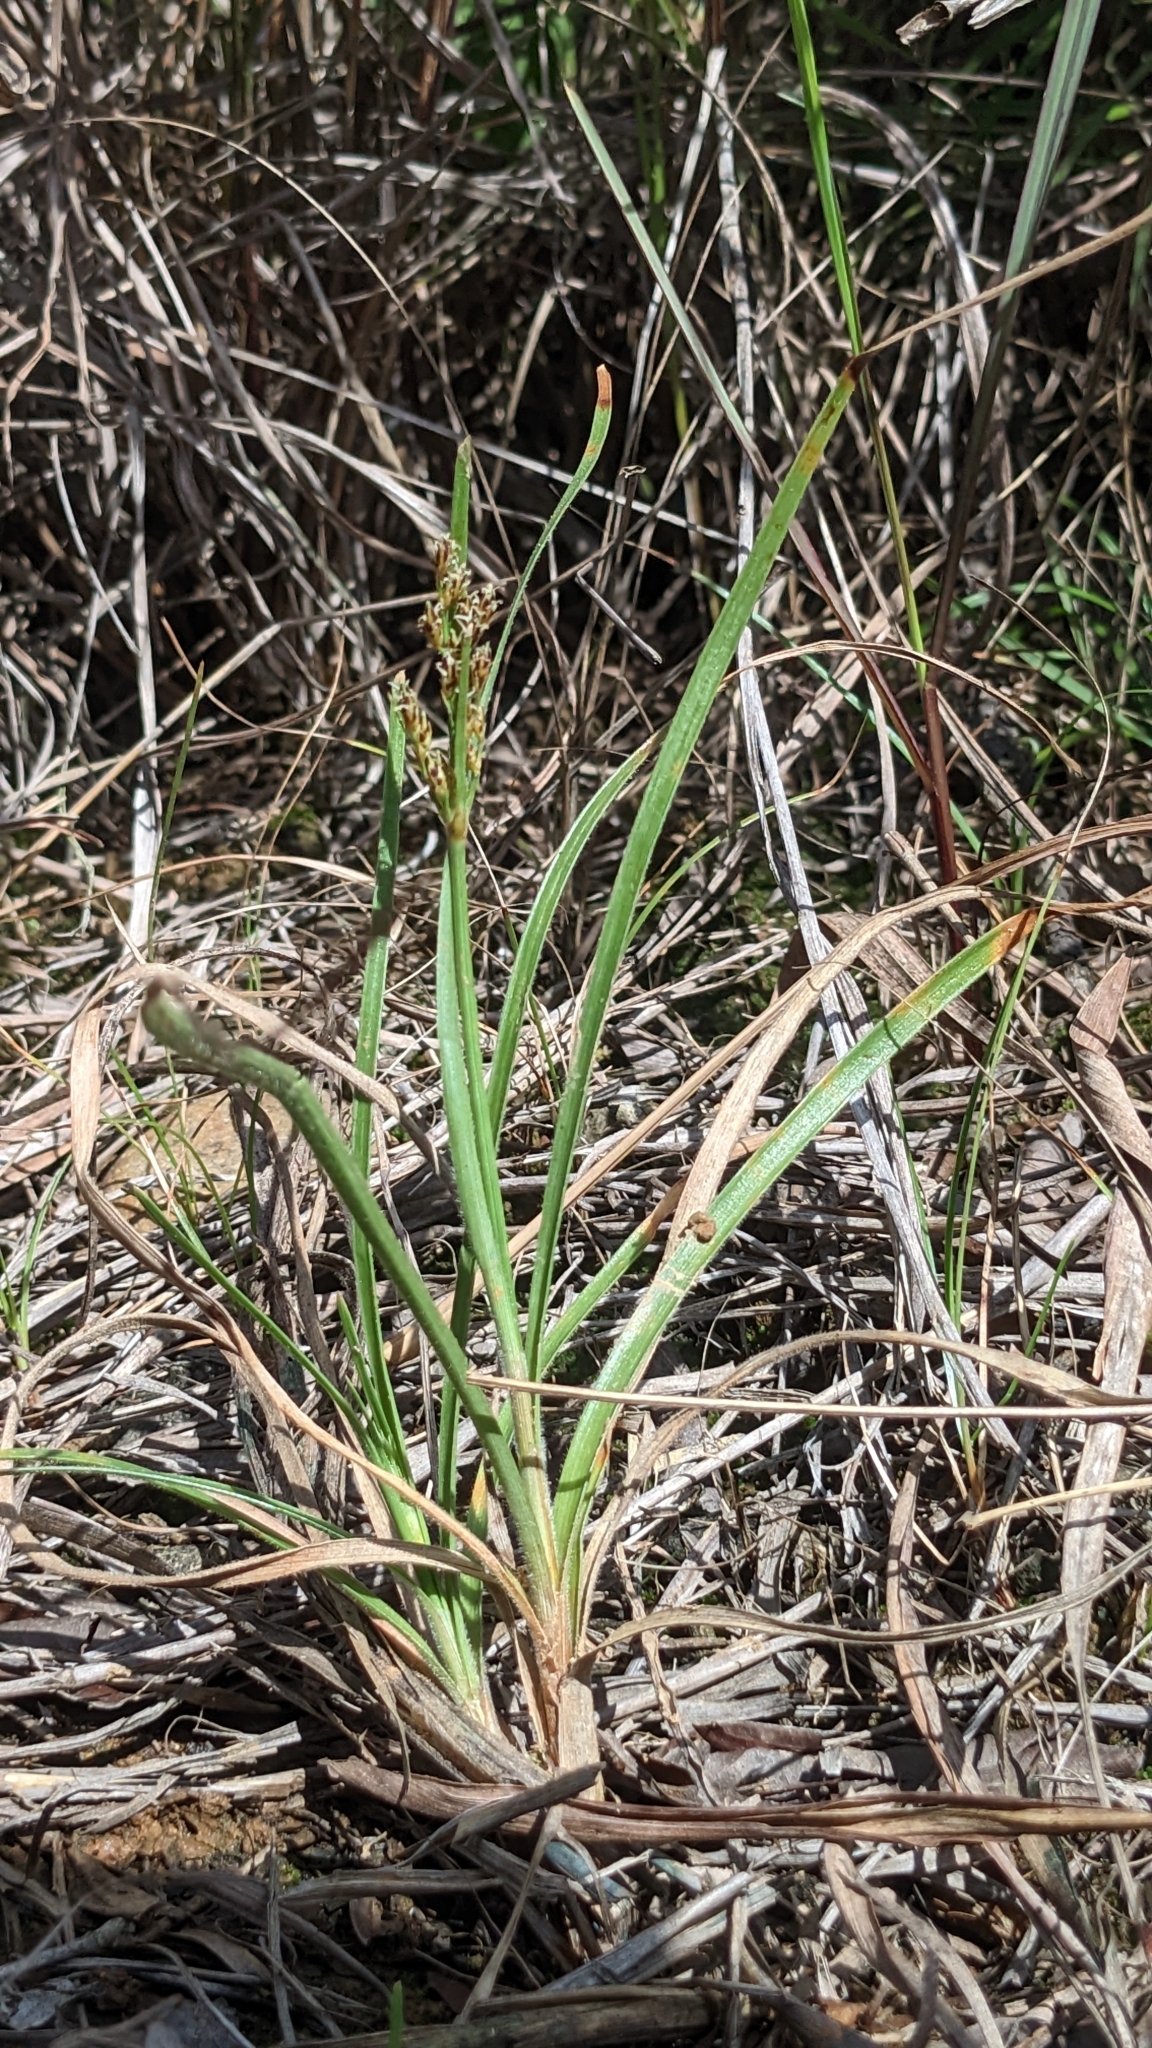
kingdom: Plantae
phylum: Tracheophyta
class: Liliopsida
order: Poales
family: Cyperaceae
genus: Fimbristylis
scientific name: Fimbristylis dichotoma
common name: Forked fimbry
